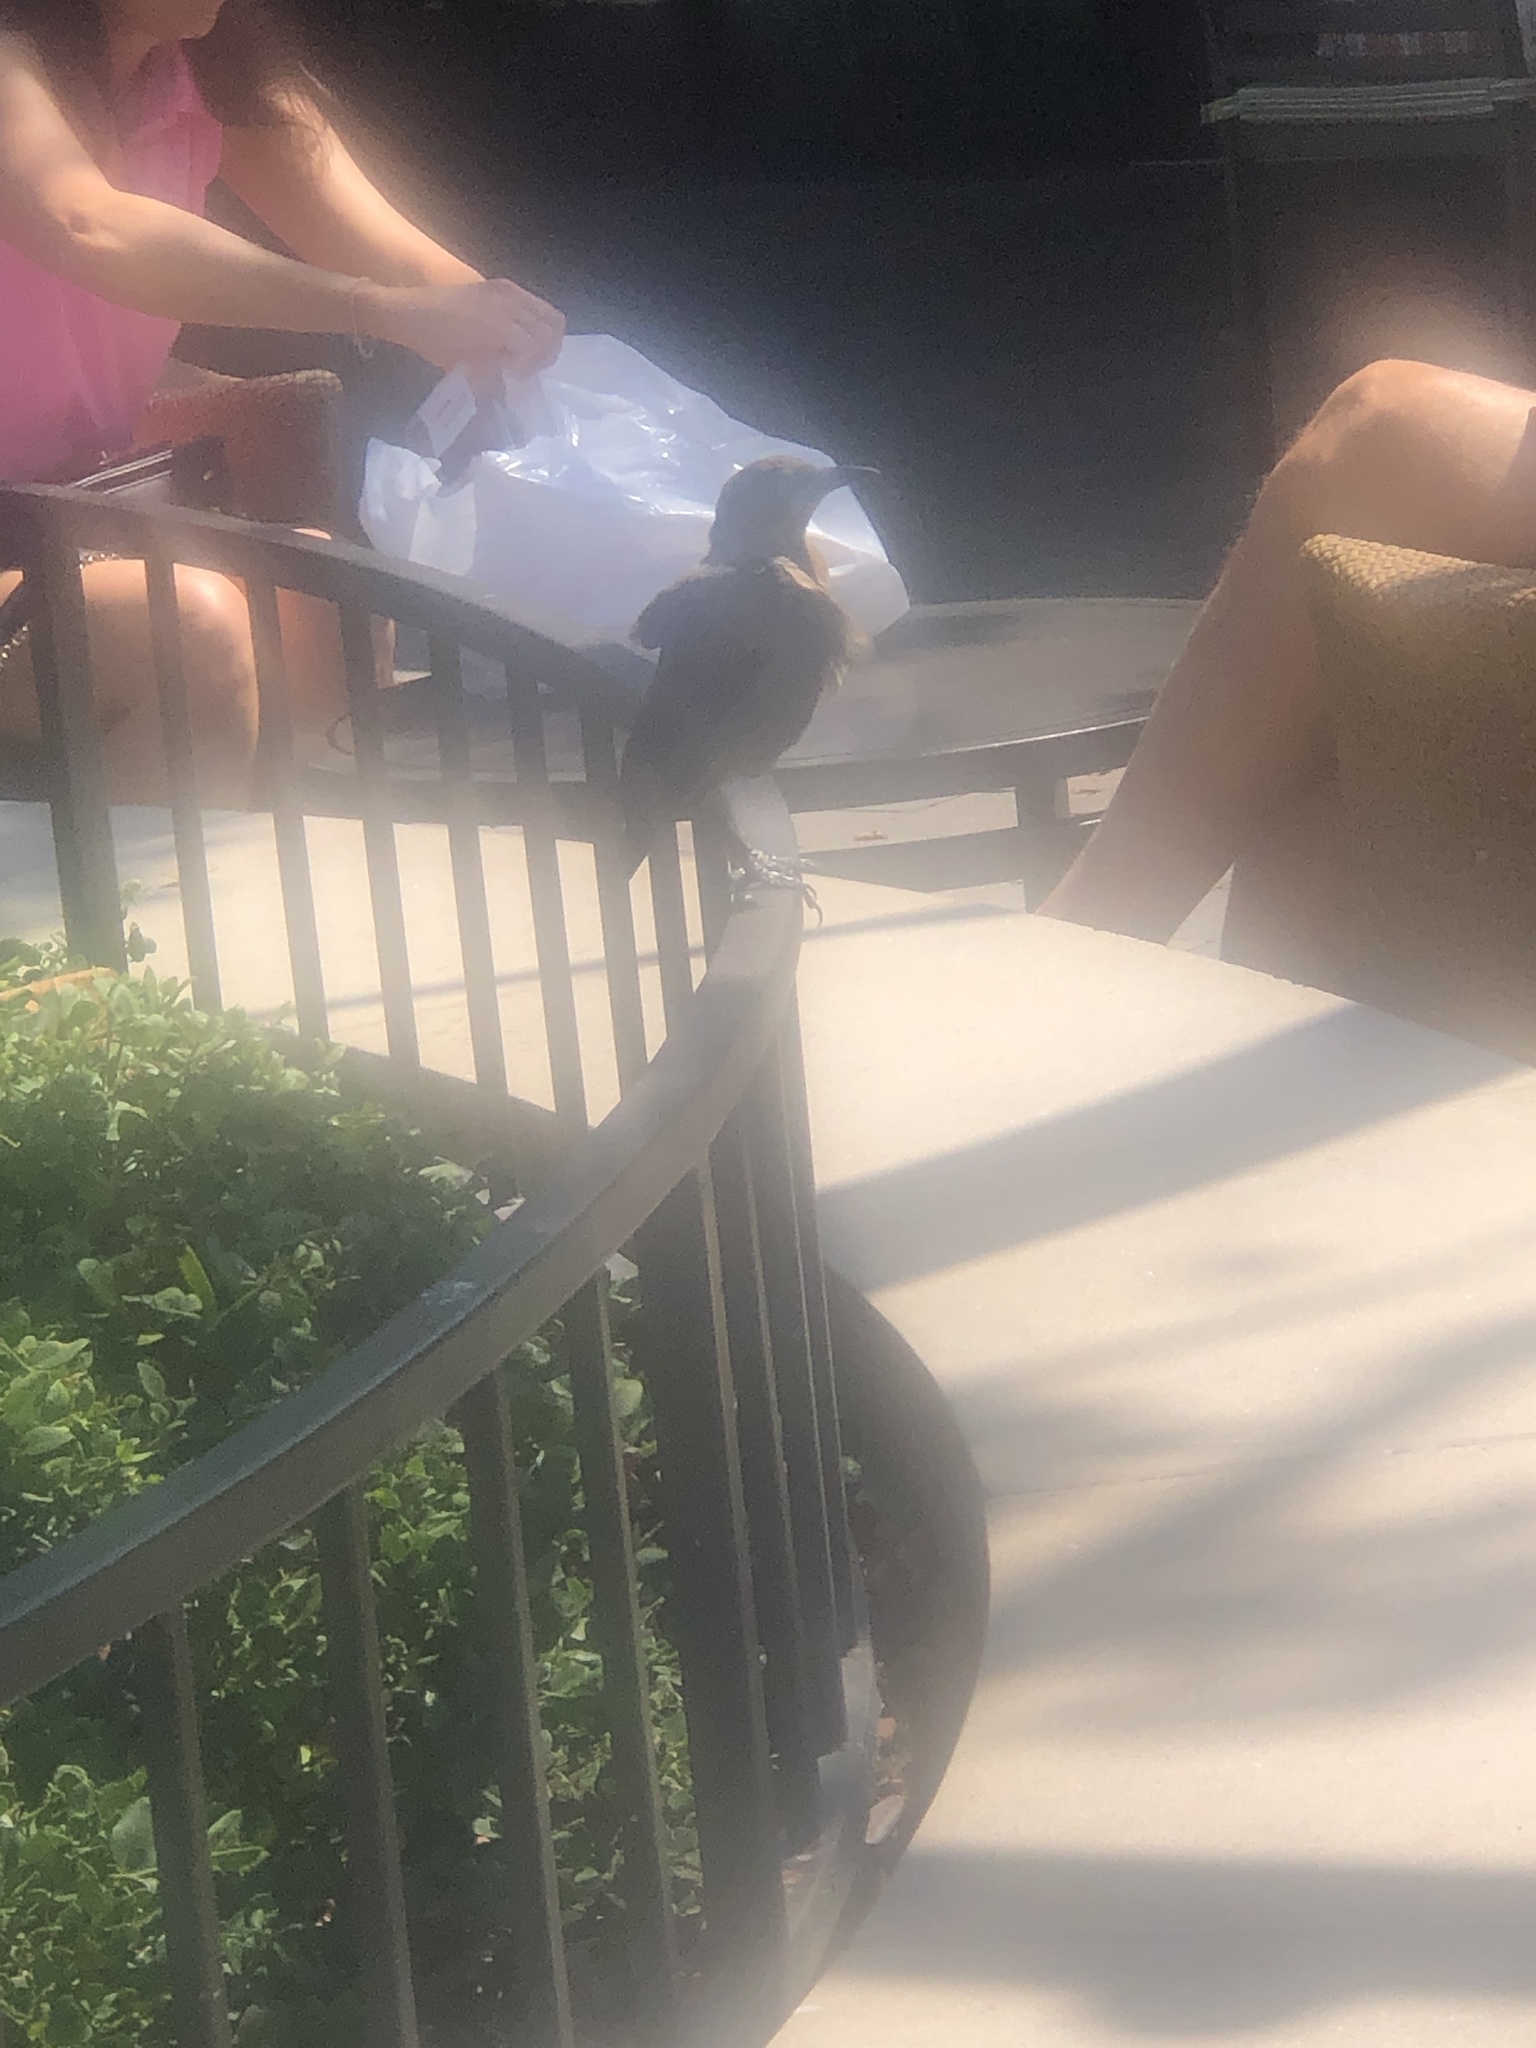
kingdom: Animalia
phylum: Chordata
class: Aves
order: Passeriformes
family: Icteridae
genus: Quiscalus
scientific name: Quiscalus mexicanus
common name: Great-tailed grackle
